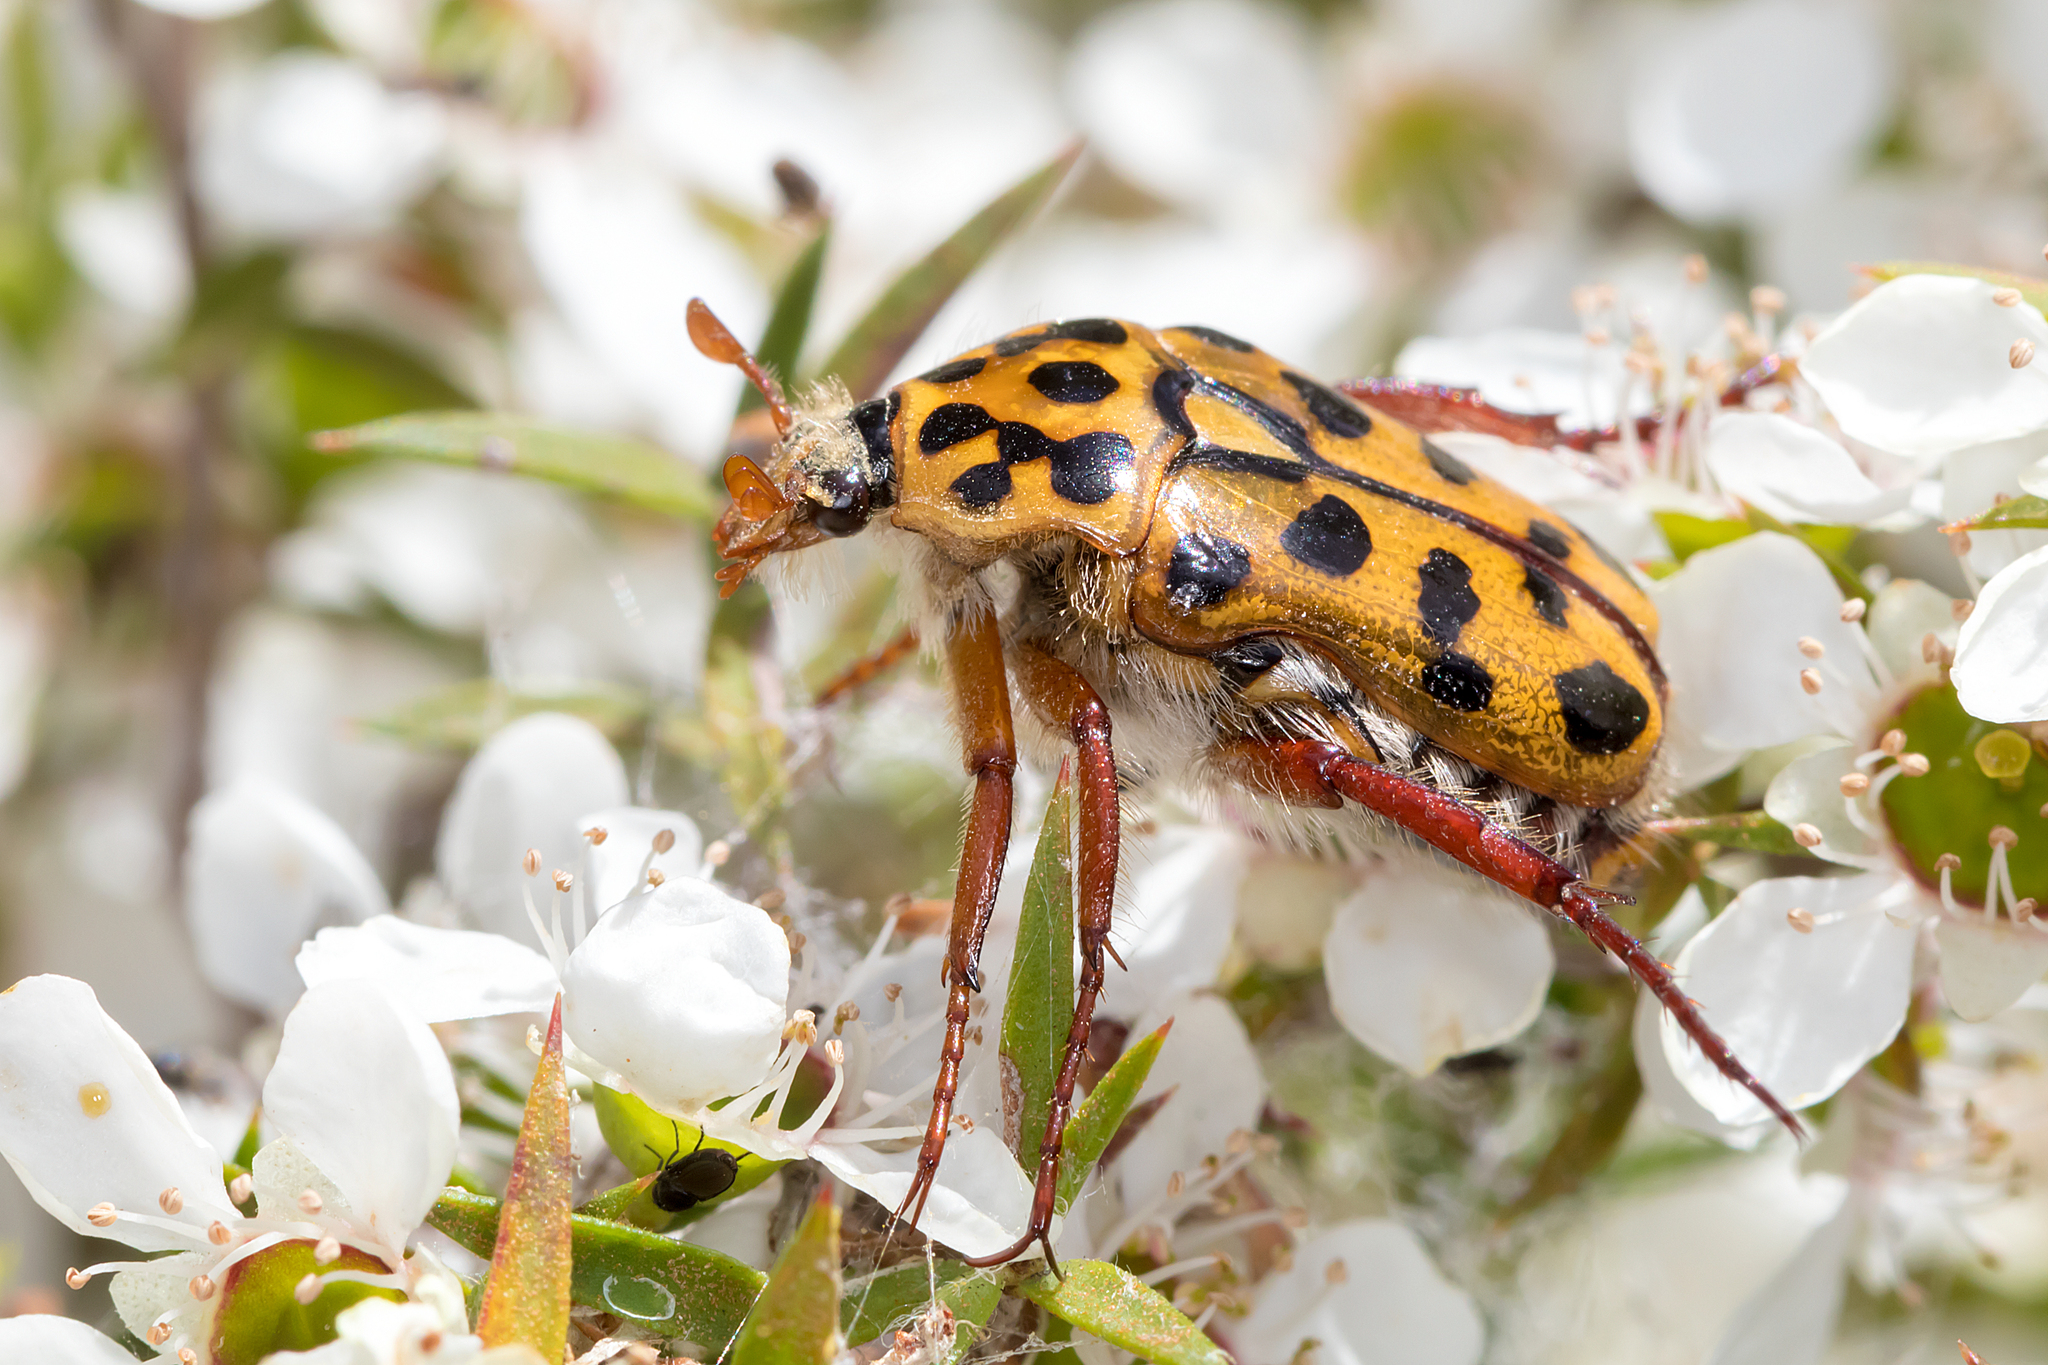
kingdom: Animalia
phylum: Arthropoda
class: Insecta
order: Coleoptera
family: Scarabaeidae
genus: Neorrhina
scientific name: Neorrhina punctatum
